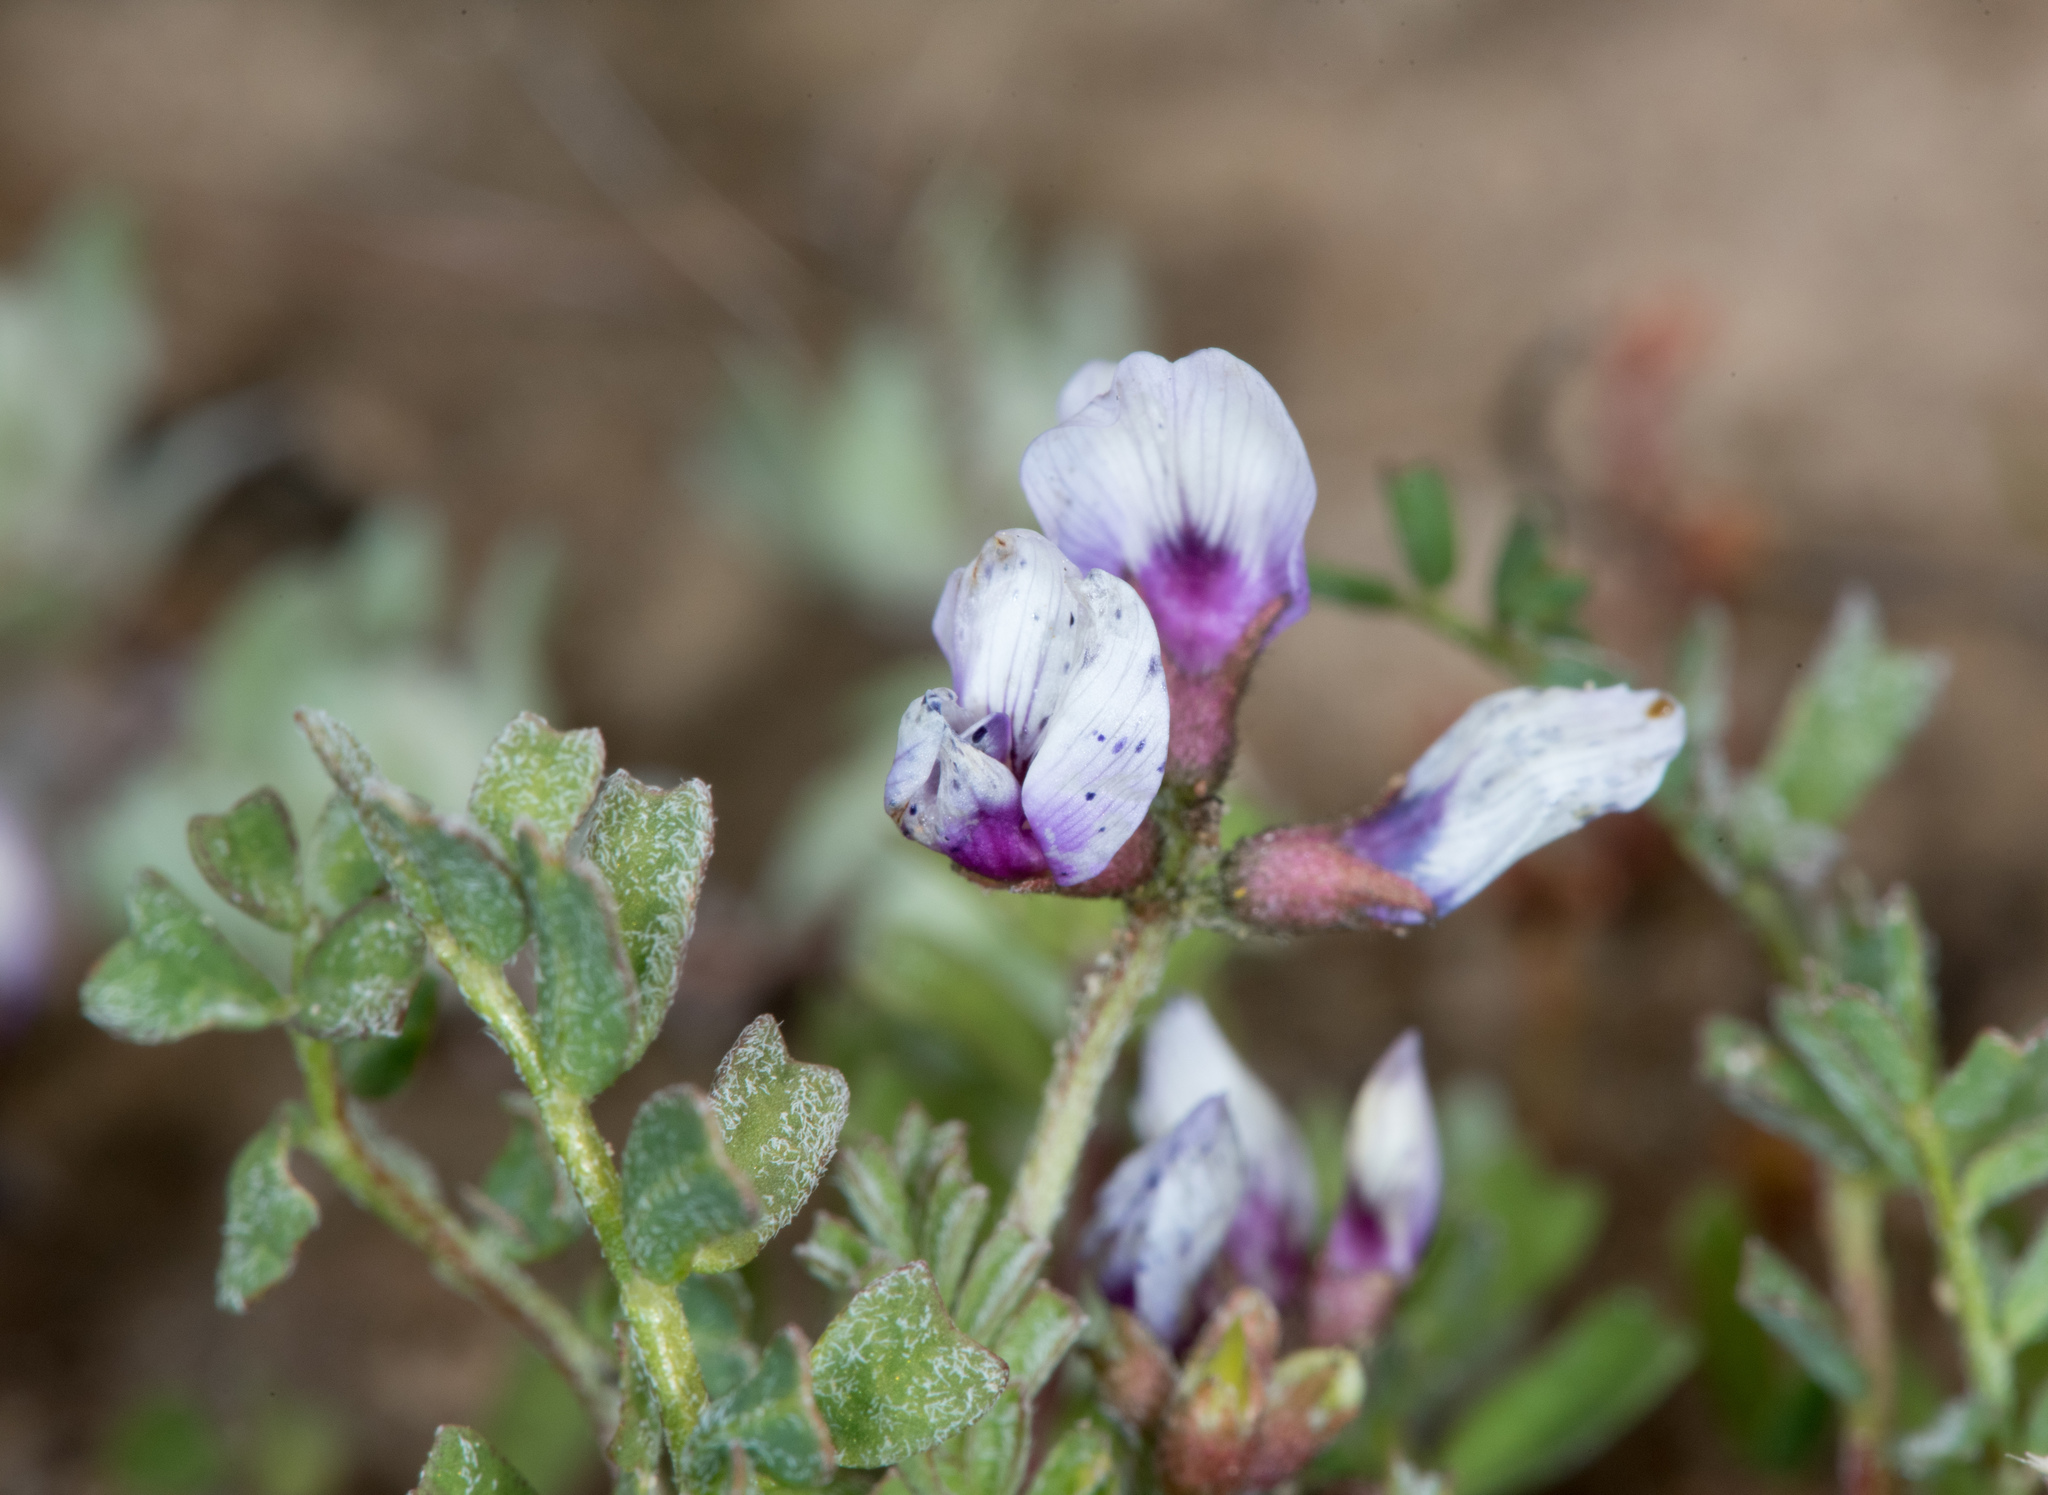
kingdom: Plantae
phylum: Tracheophyta
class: Magnoliopsida
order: Fabales
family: Fabaceae
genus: Astragalus
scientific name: Astragalus tener
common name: Gray slender milkvetch
